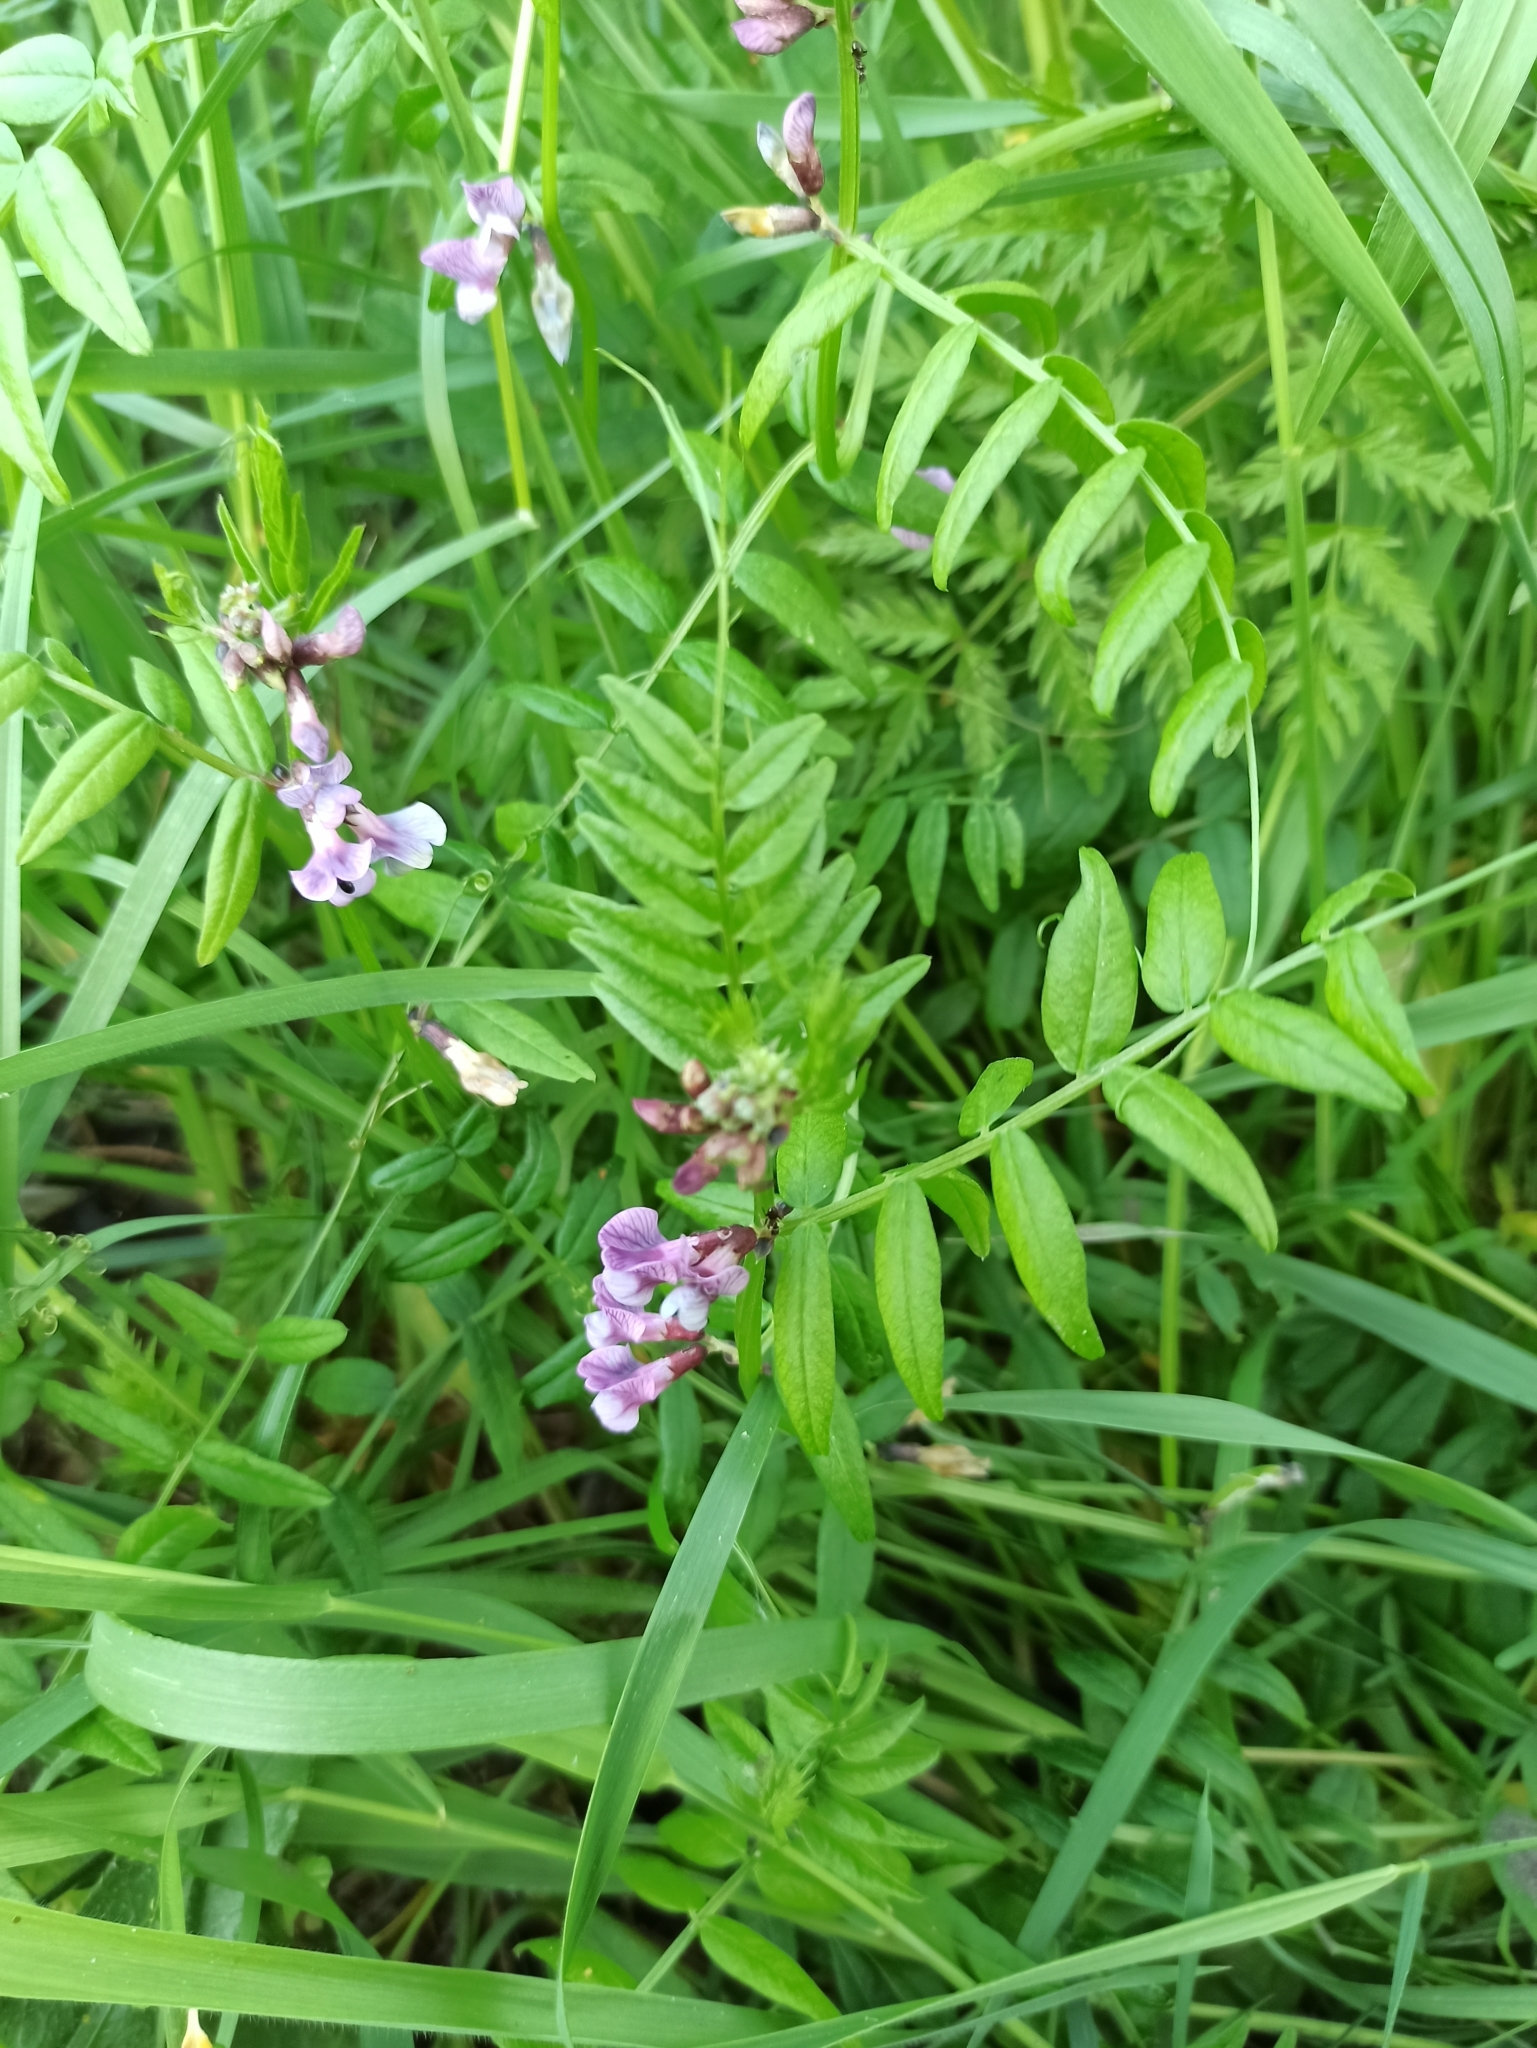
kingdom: Plantae
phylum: Tracheophyta
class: Magnoliopsida
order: Fabales
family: Fabaceae
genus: Vicia
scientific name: Vicia sepium
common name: Bush vetch
